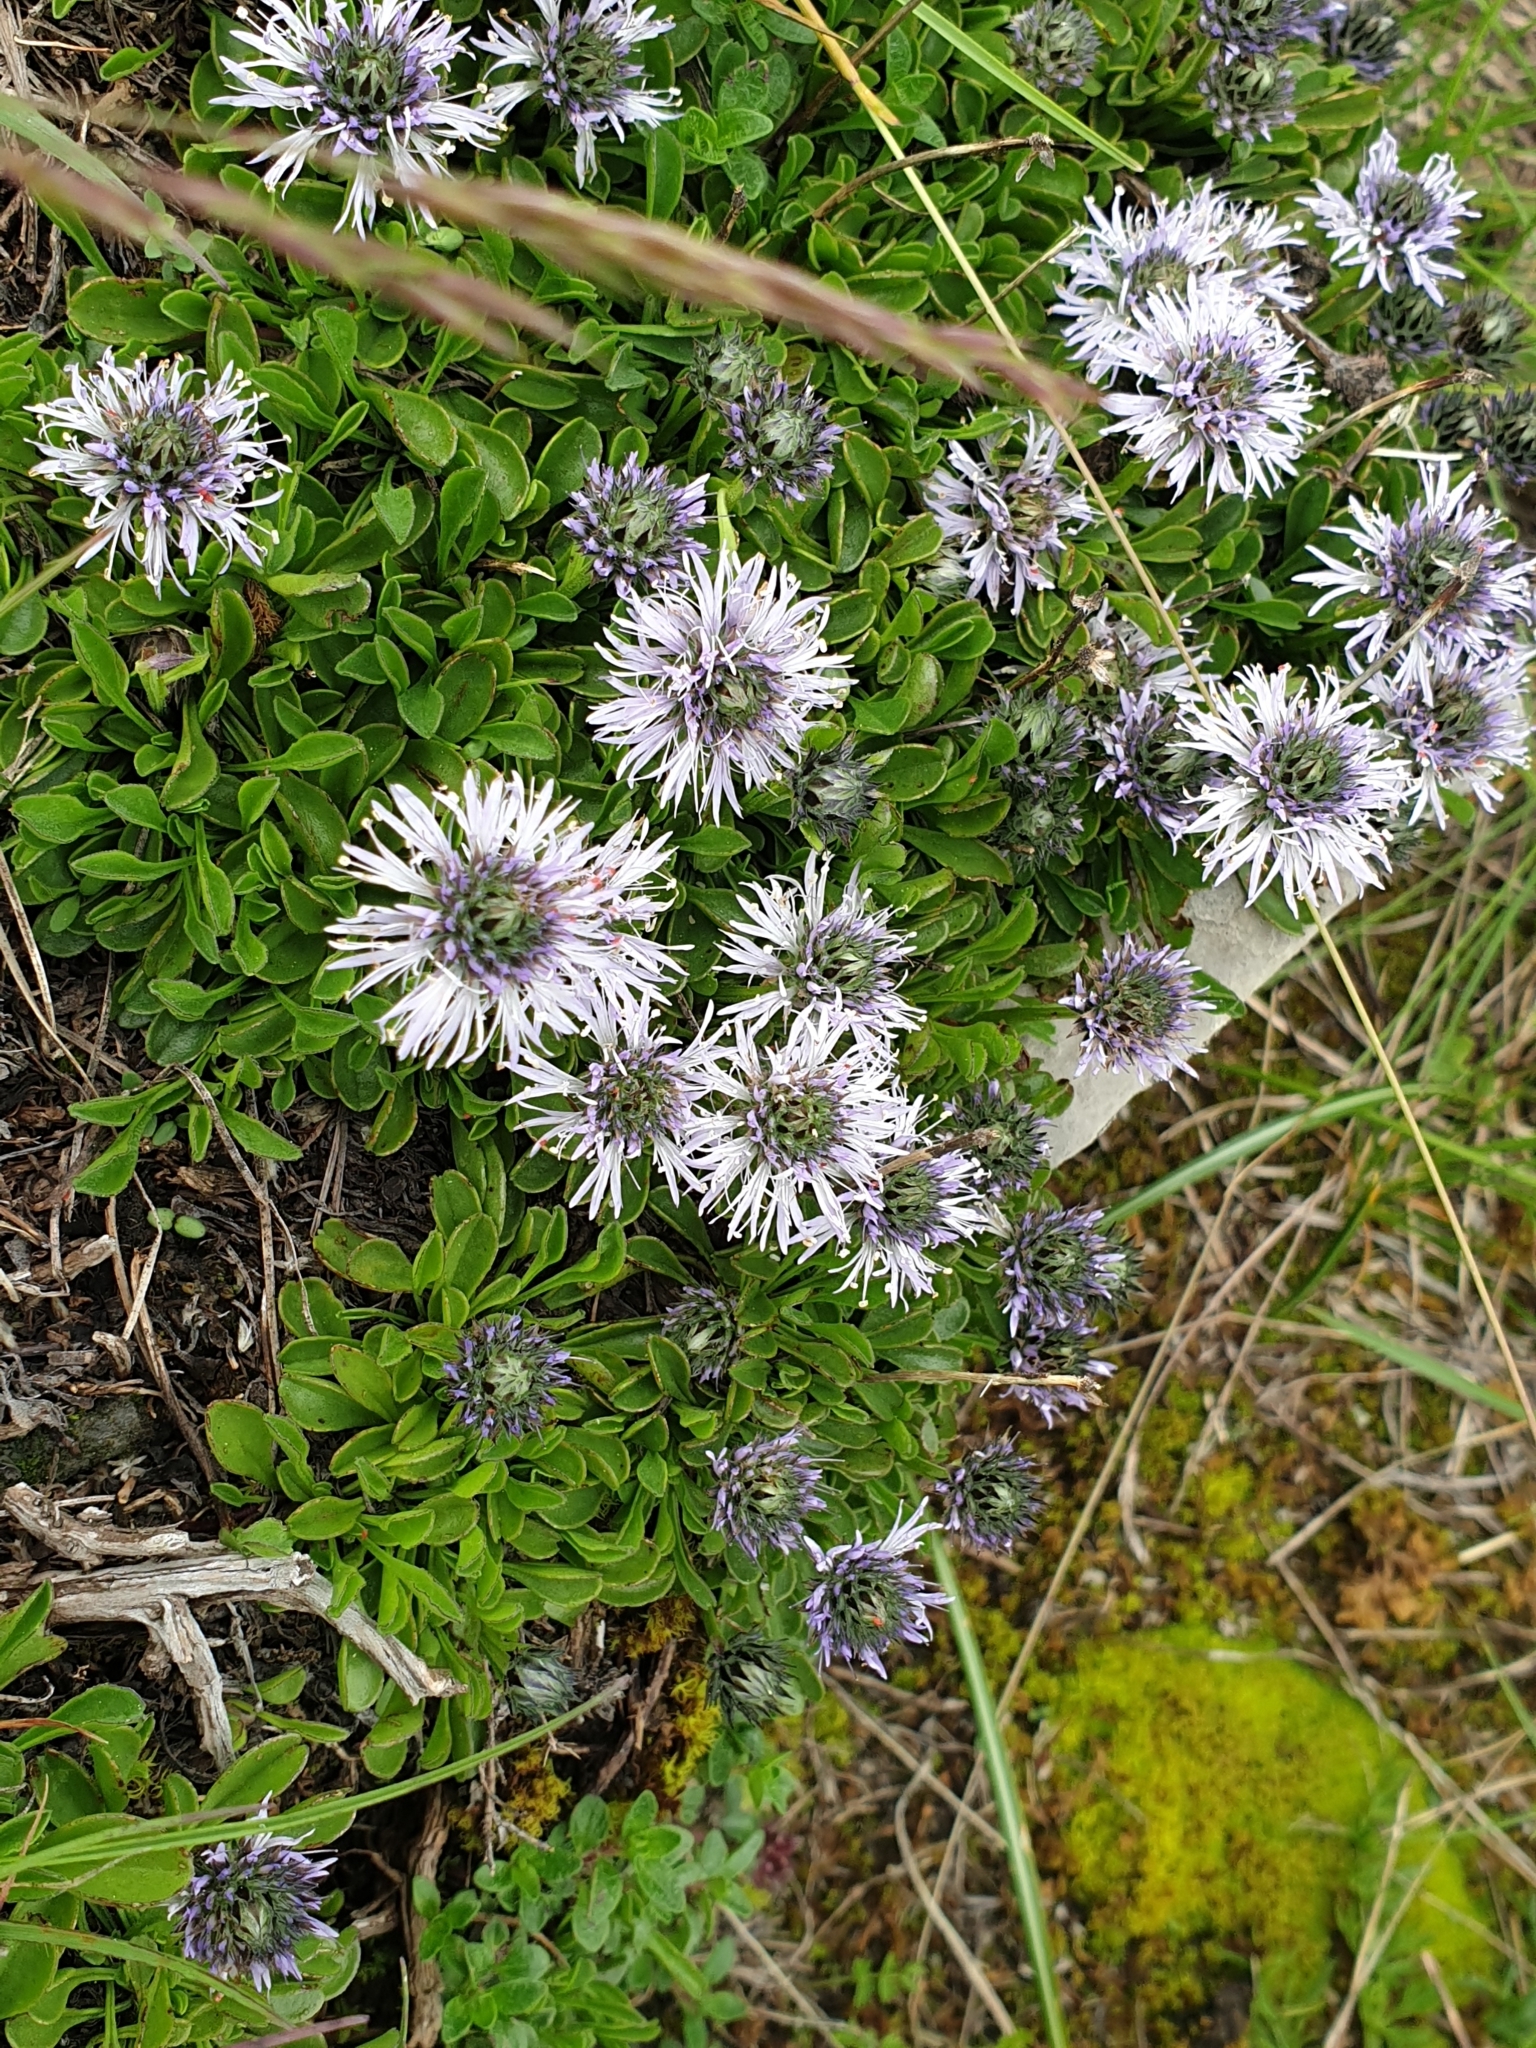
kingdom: Plantae
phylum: Tracheophyta
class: Magnoliopsida
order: Lamiales
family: Plantaginaceae
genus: Globularia
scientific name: Globularia cordifolia
